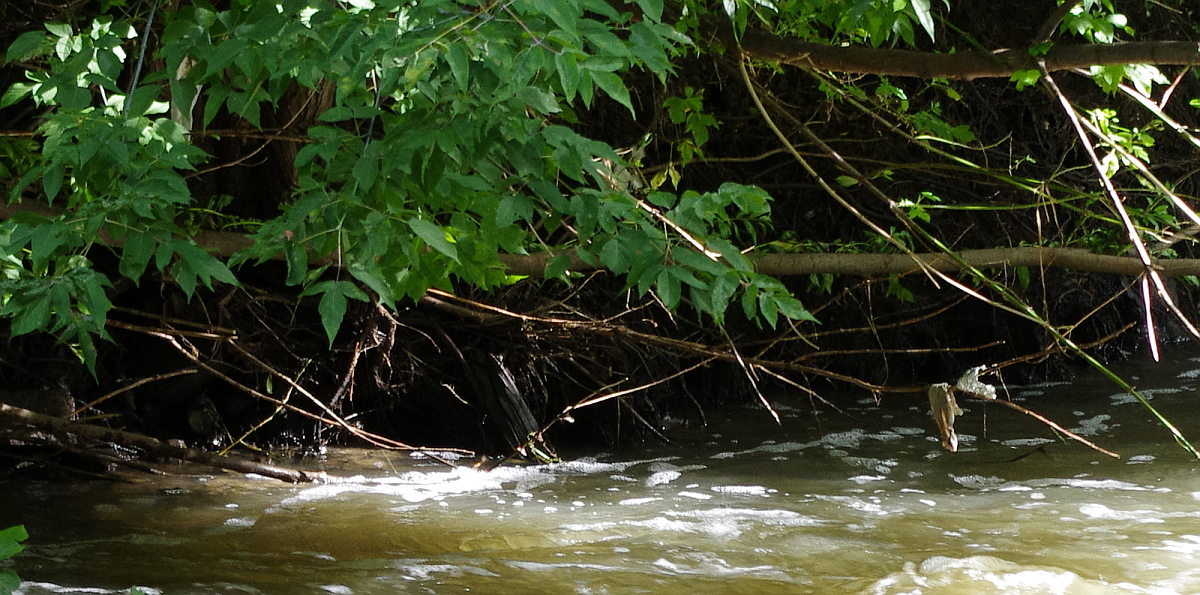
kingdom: Plantae
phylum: Tracheophyta
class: Magnoliopsida
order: Sapindales
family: Sapindaceae
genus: Acer
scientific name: Acer negundo
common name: Ashleaf maple
